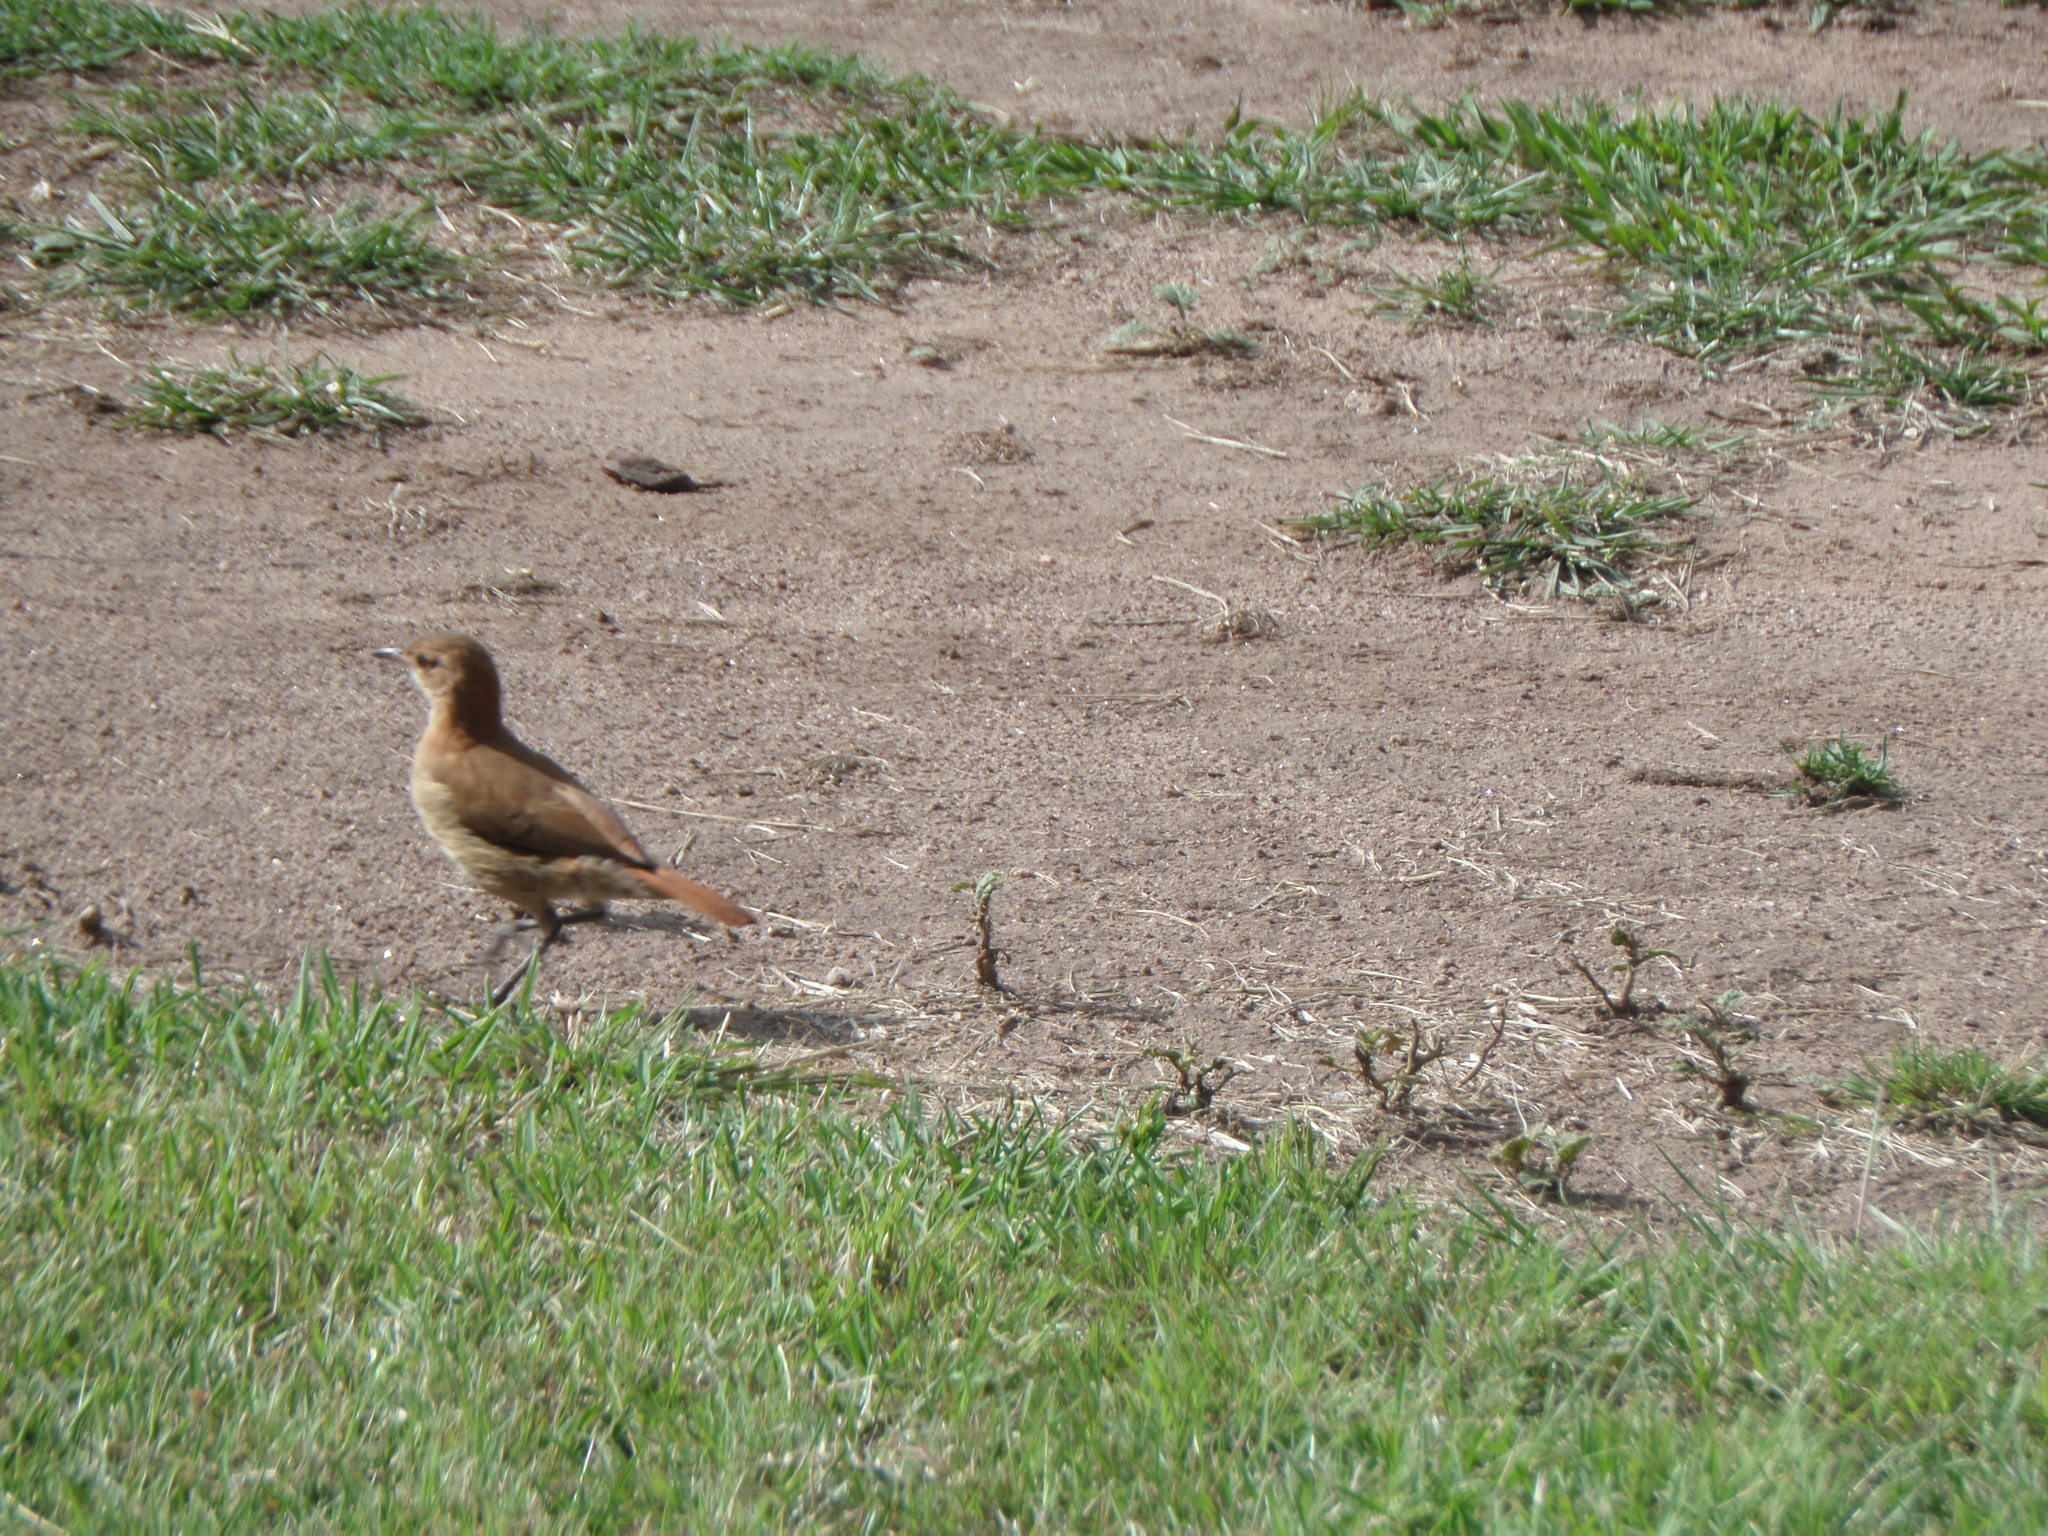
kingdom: Animalia
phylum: Chordata
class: Aves
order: Passeriformes
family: Furnariidae
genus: Furnarius
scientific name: Furnarius rufus
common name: Rufous hornero
